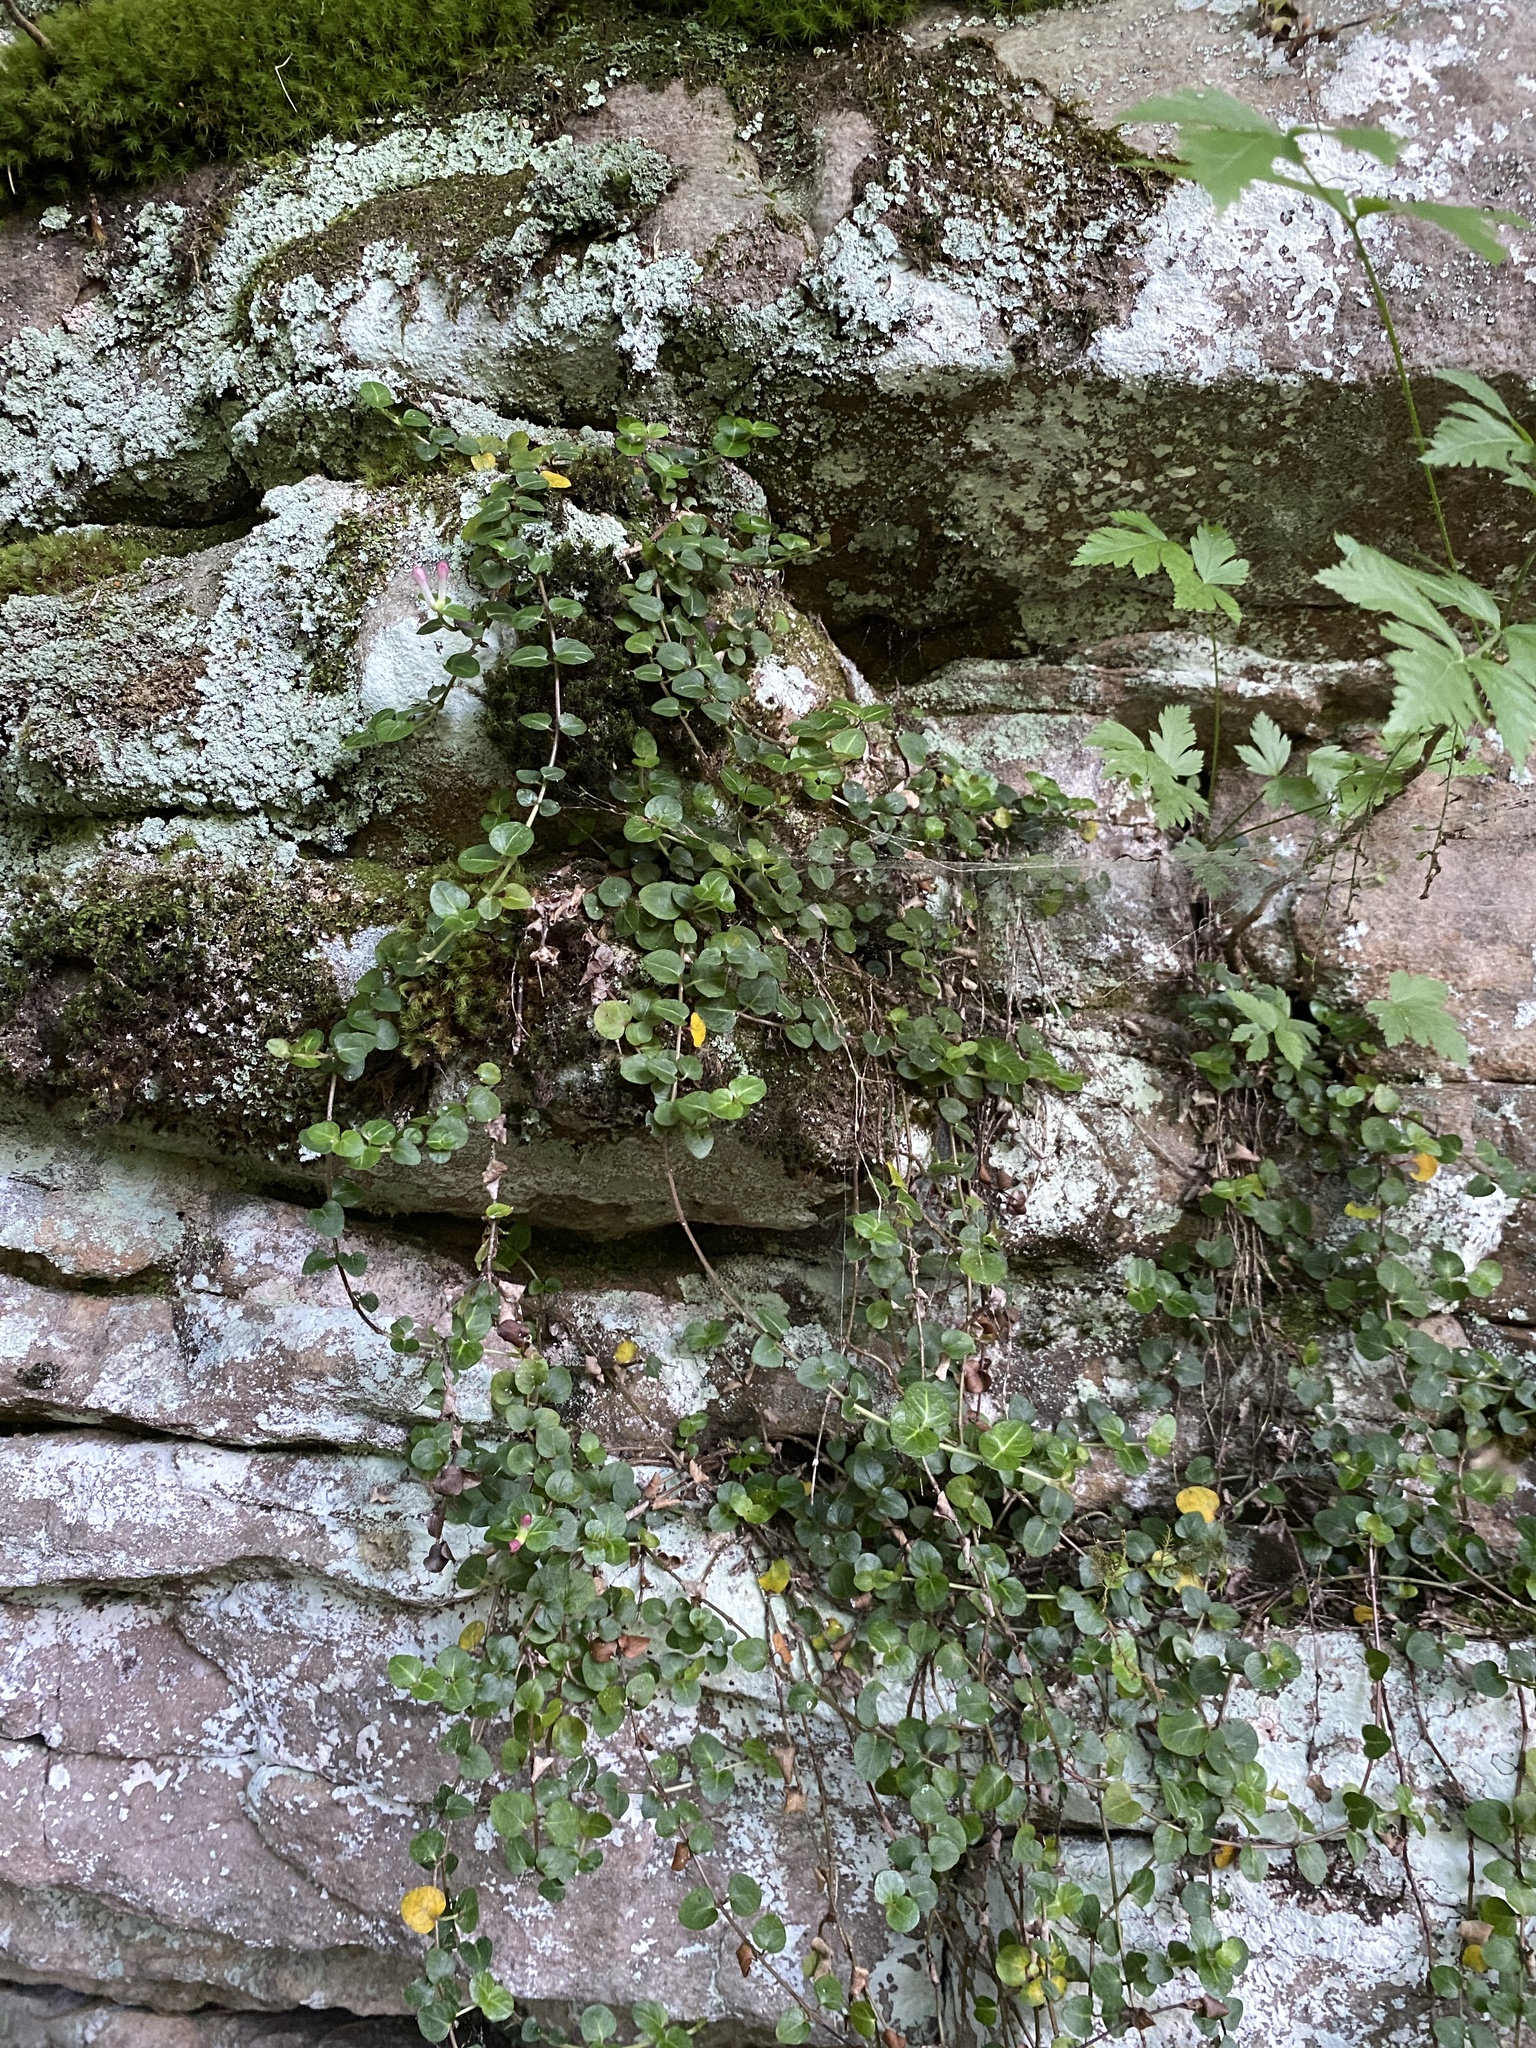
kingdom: Plantae
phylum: Tracheophyta
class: Magnoliopsida
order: Gentianales
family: Rubiaceae
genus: Mitchella
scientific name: Mitchella repens
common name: Partridge-berry
